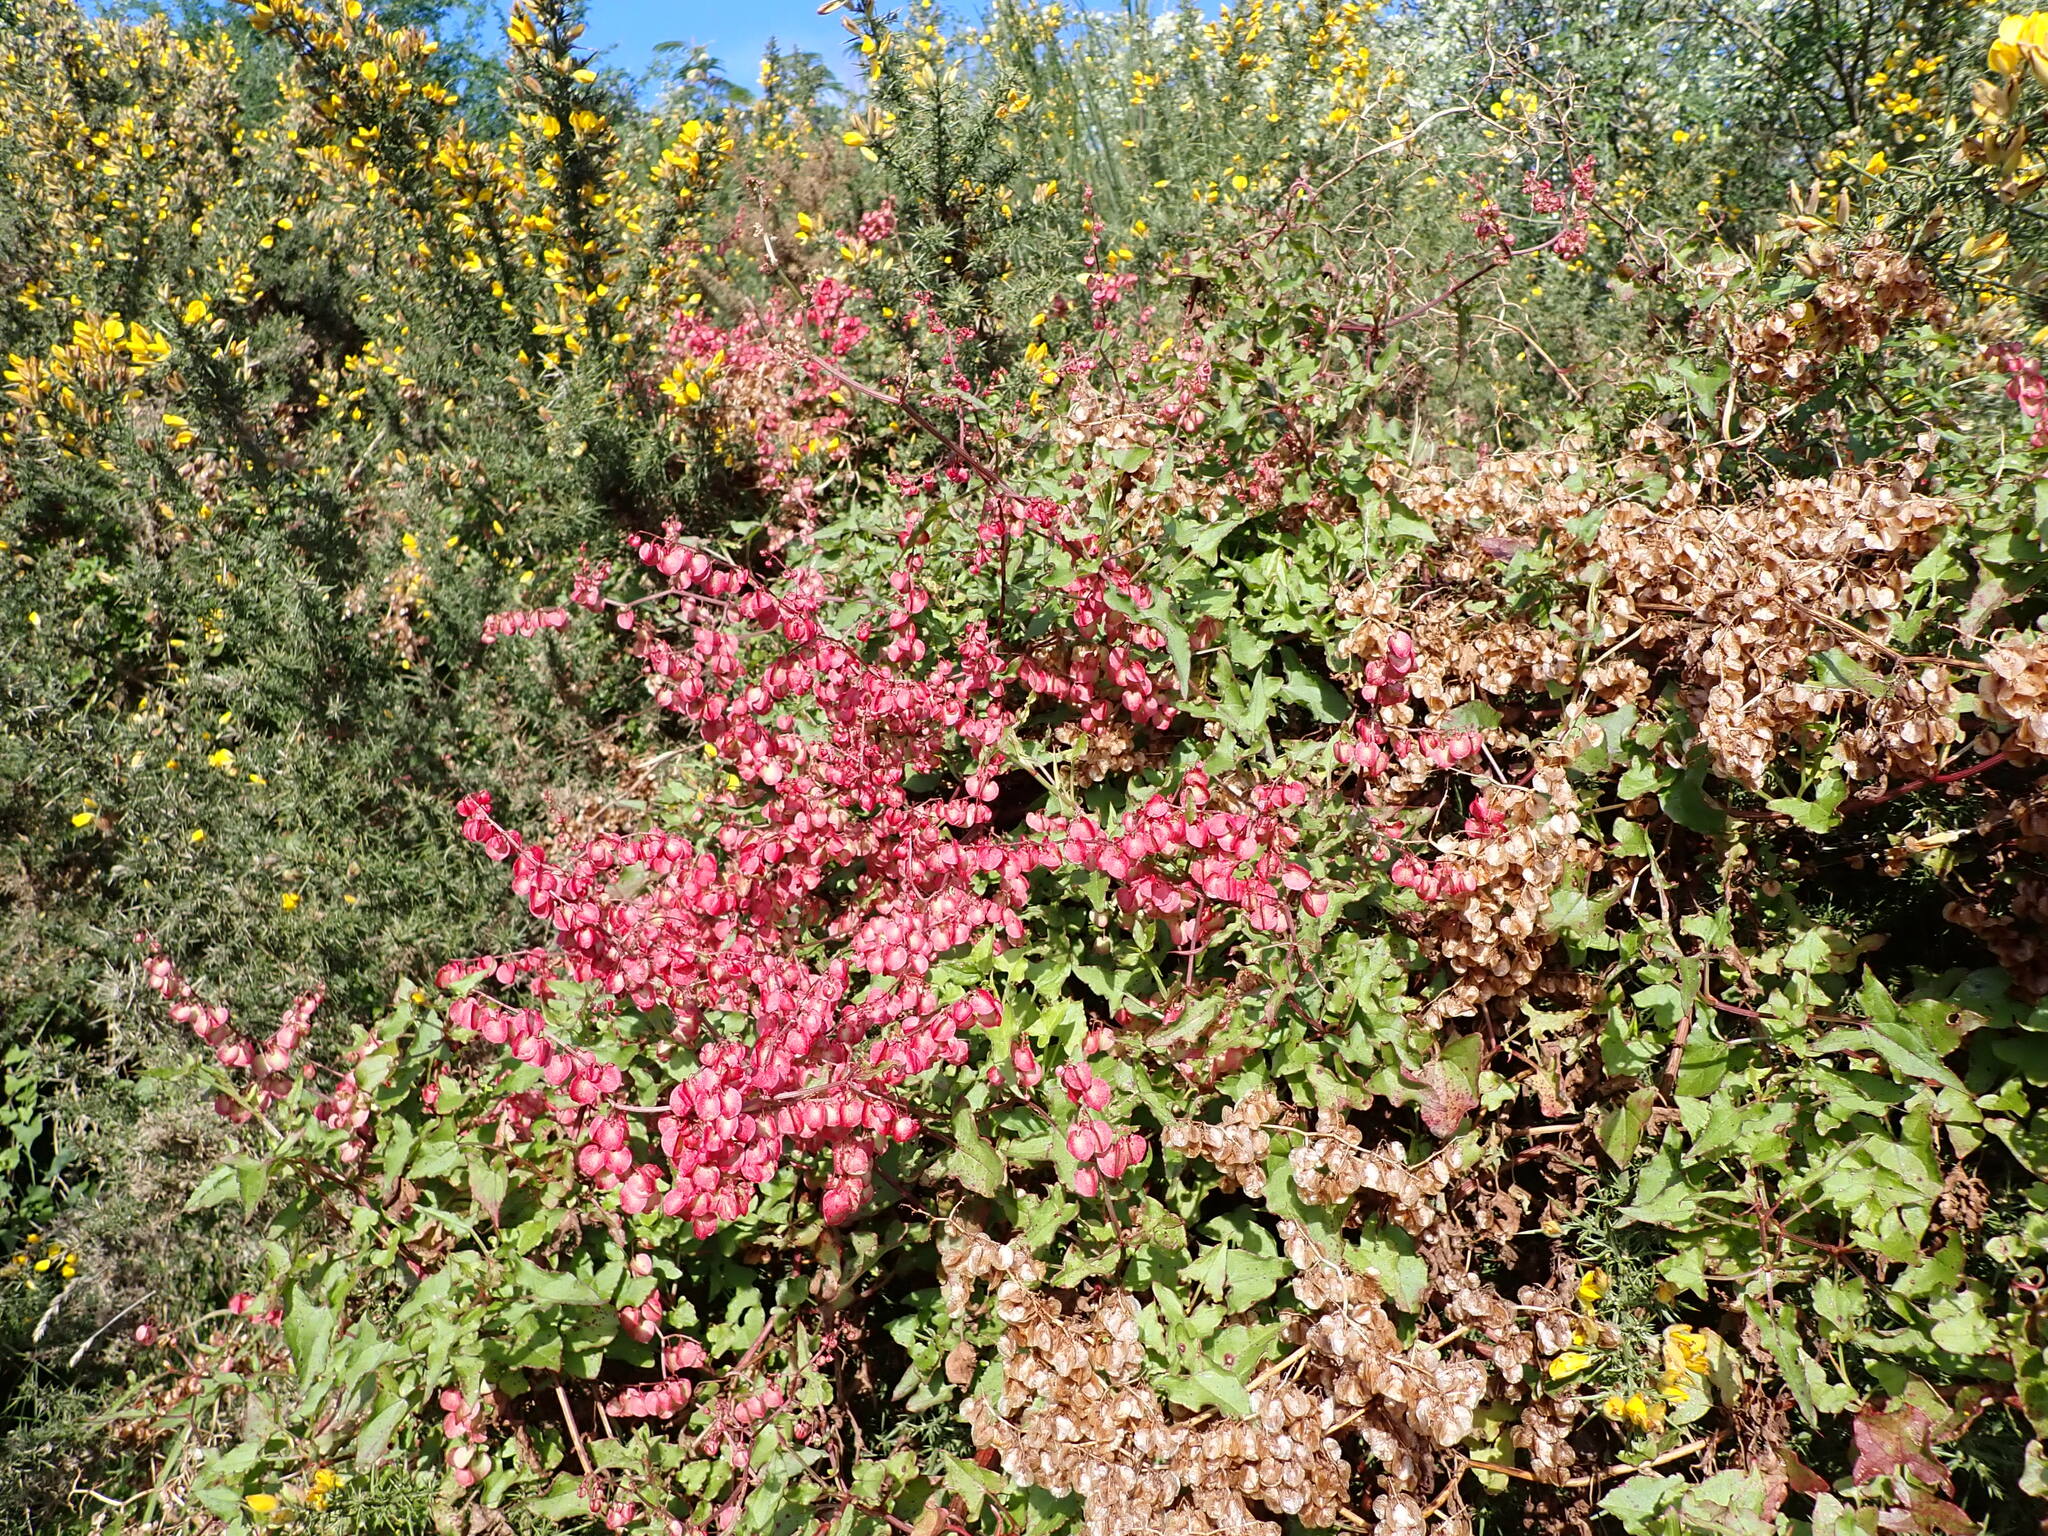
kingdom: Plantae
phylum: Tracheophyta
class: Magnoliopsida
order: Caryophyllales
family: Polygonaceae
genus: Rumex
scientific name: Rumex sagittatus
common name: Climbing dock
